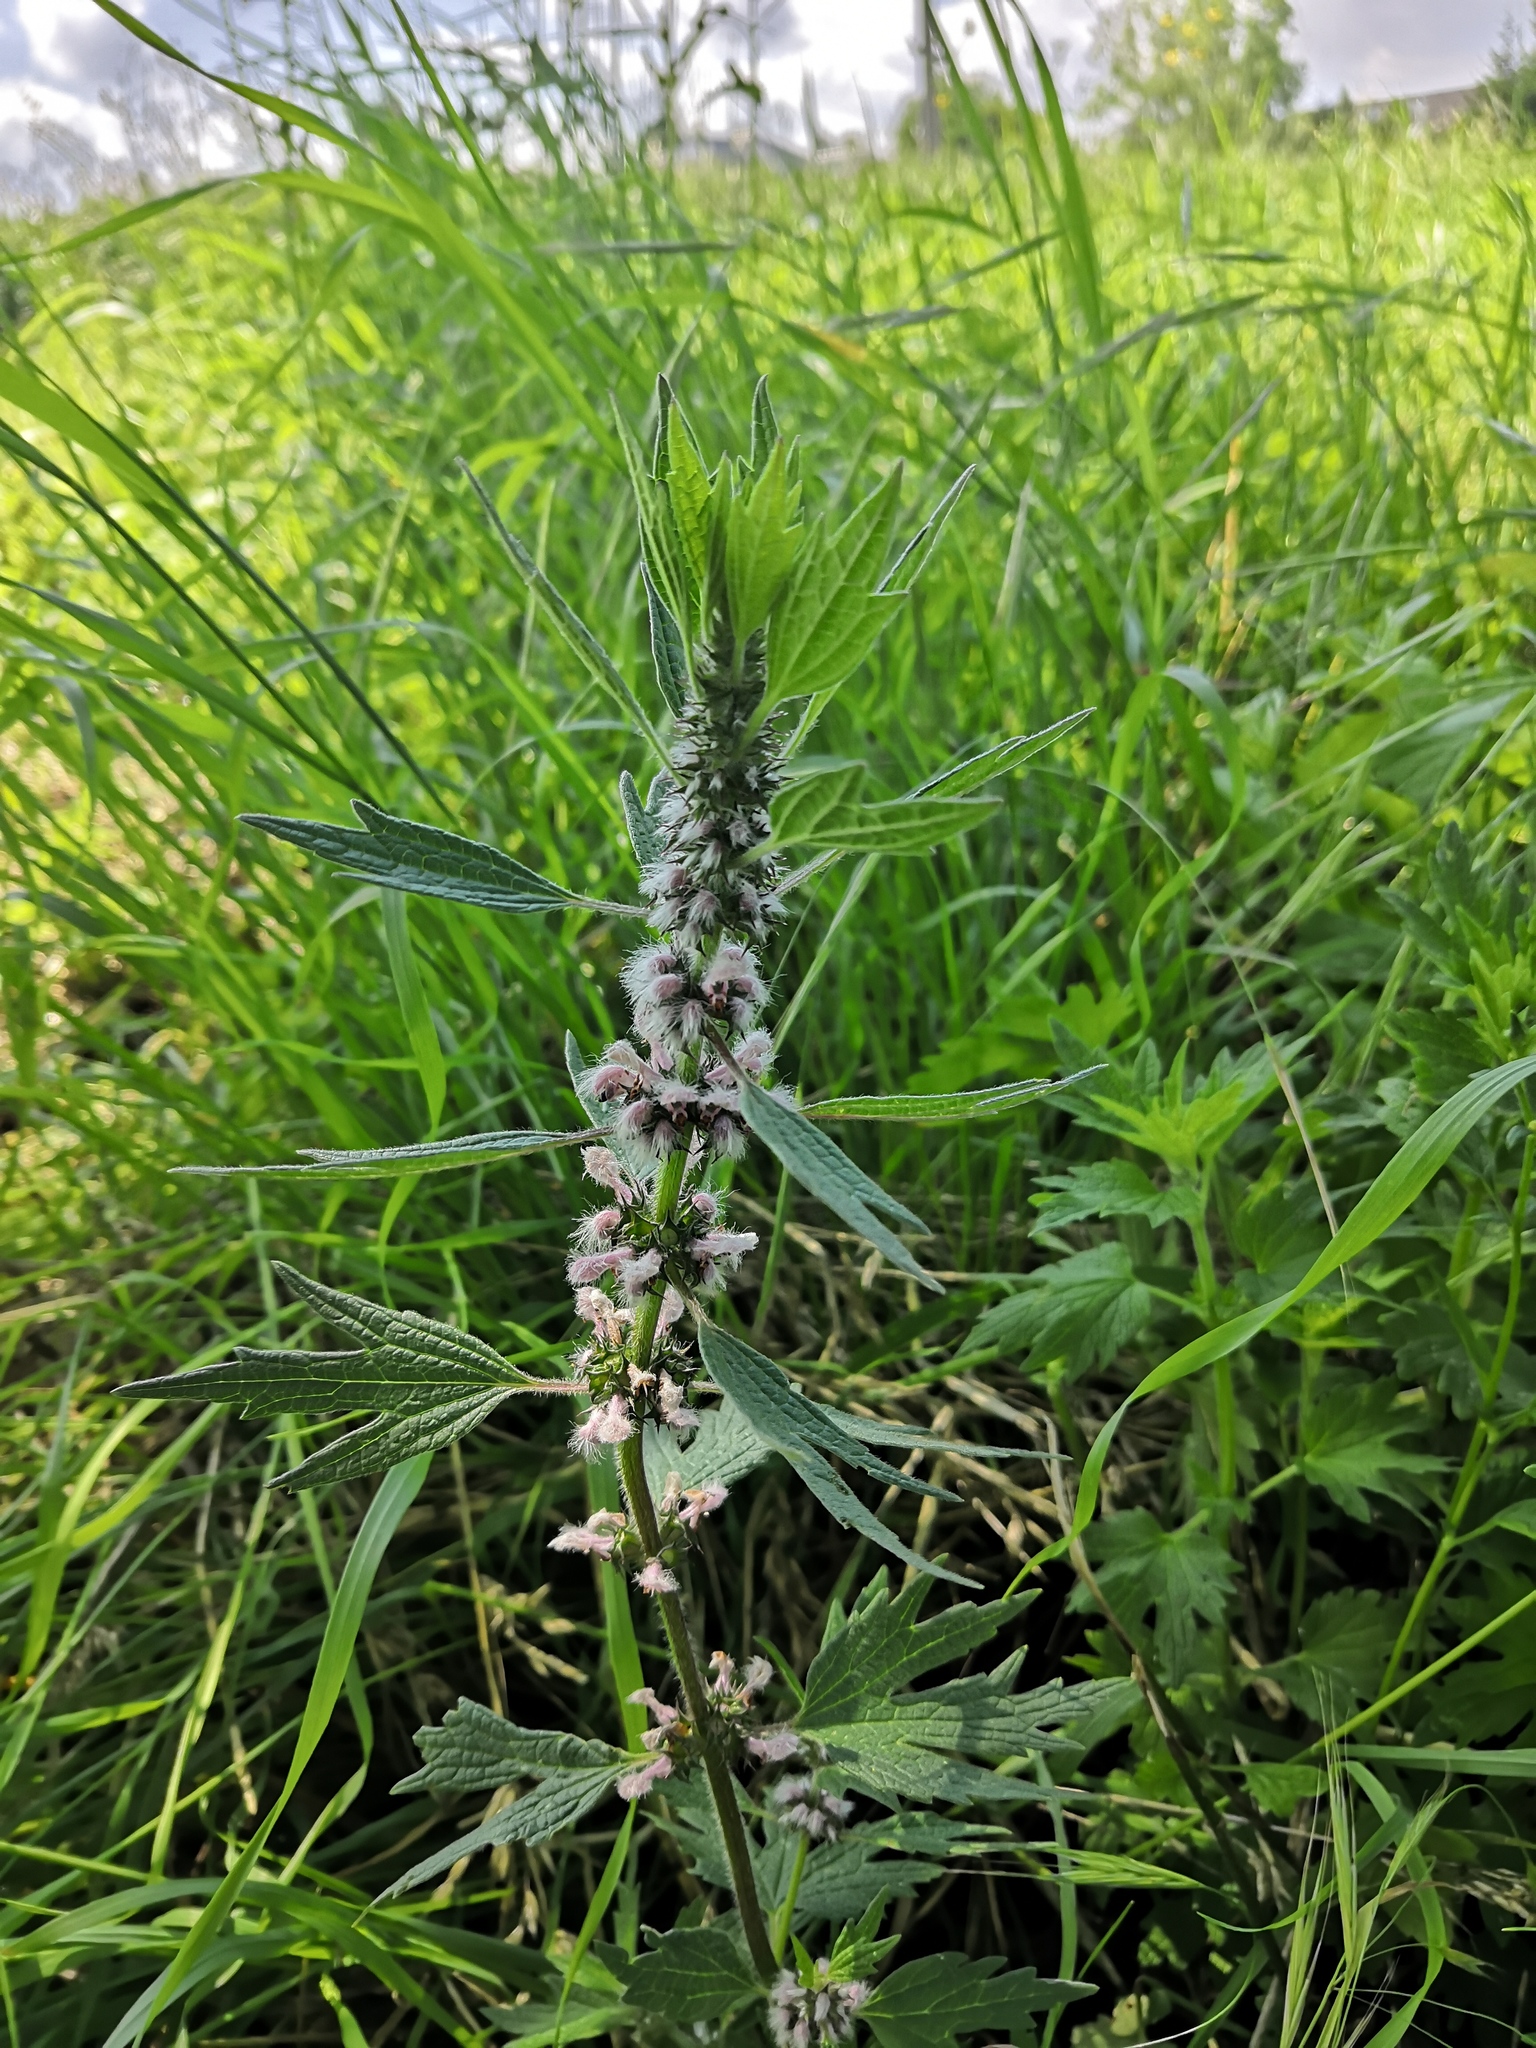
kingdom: Plantae
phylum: Tracheophyta
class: Magnoliopsida
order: Lamiales
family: Lamiaceae
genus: Leonurus
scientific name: Leonurus cardiaca
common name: Motherwort
